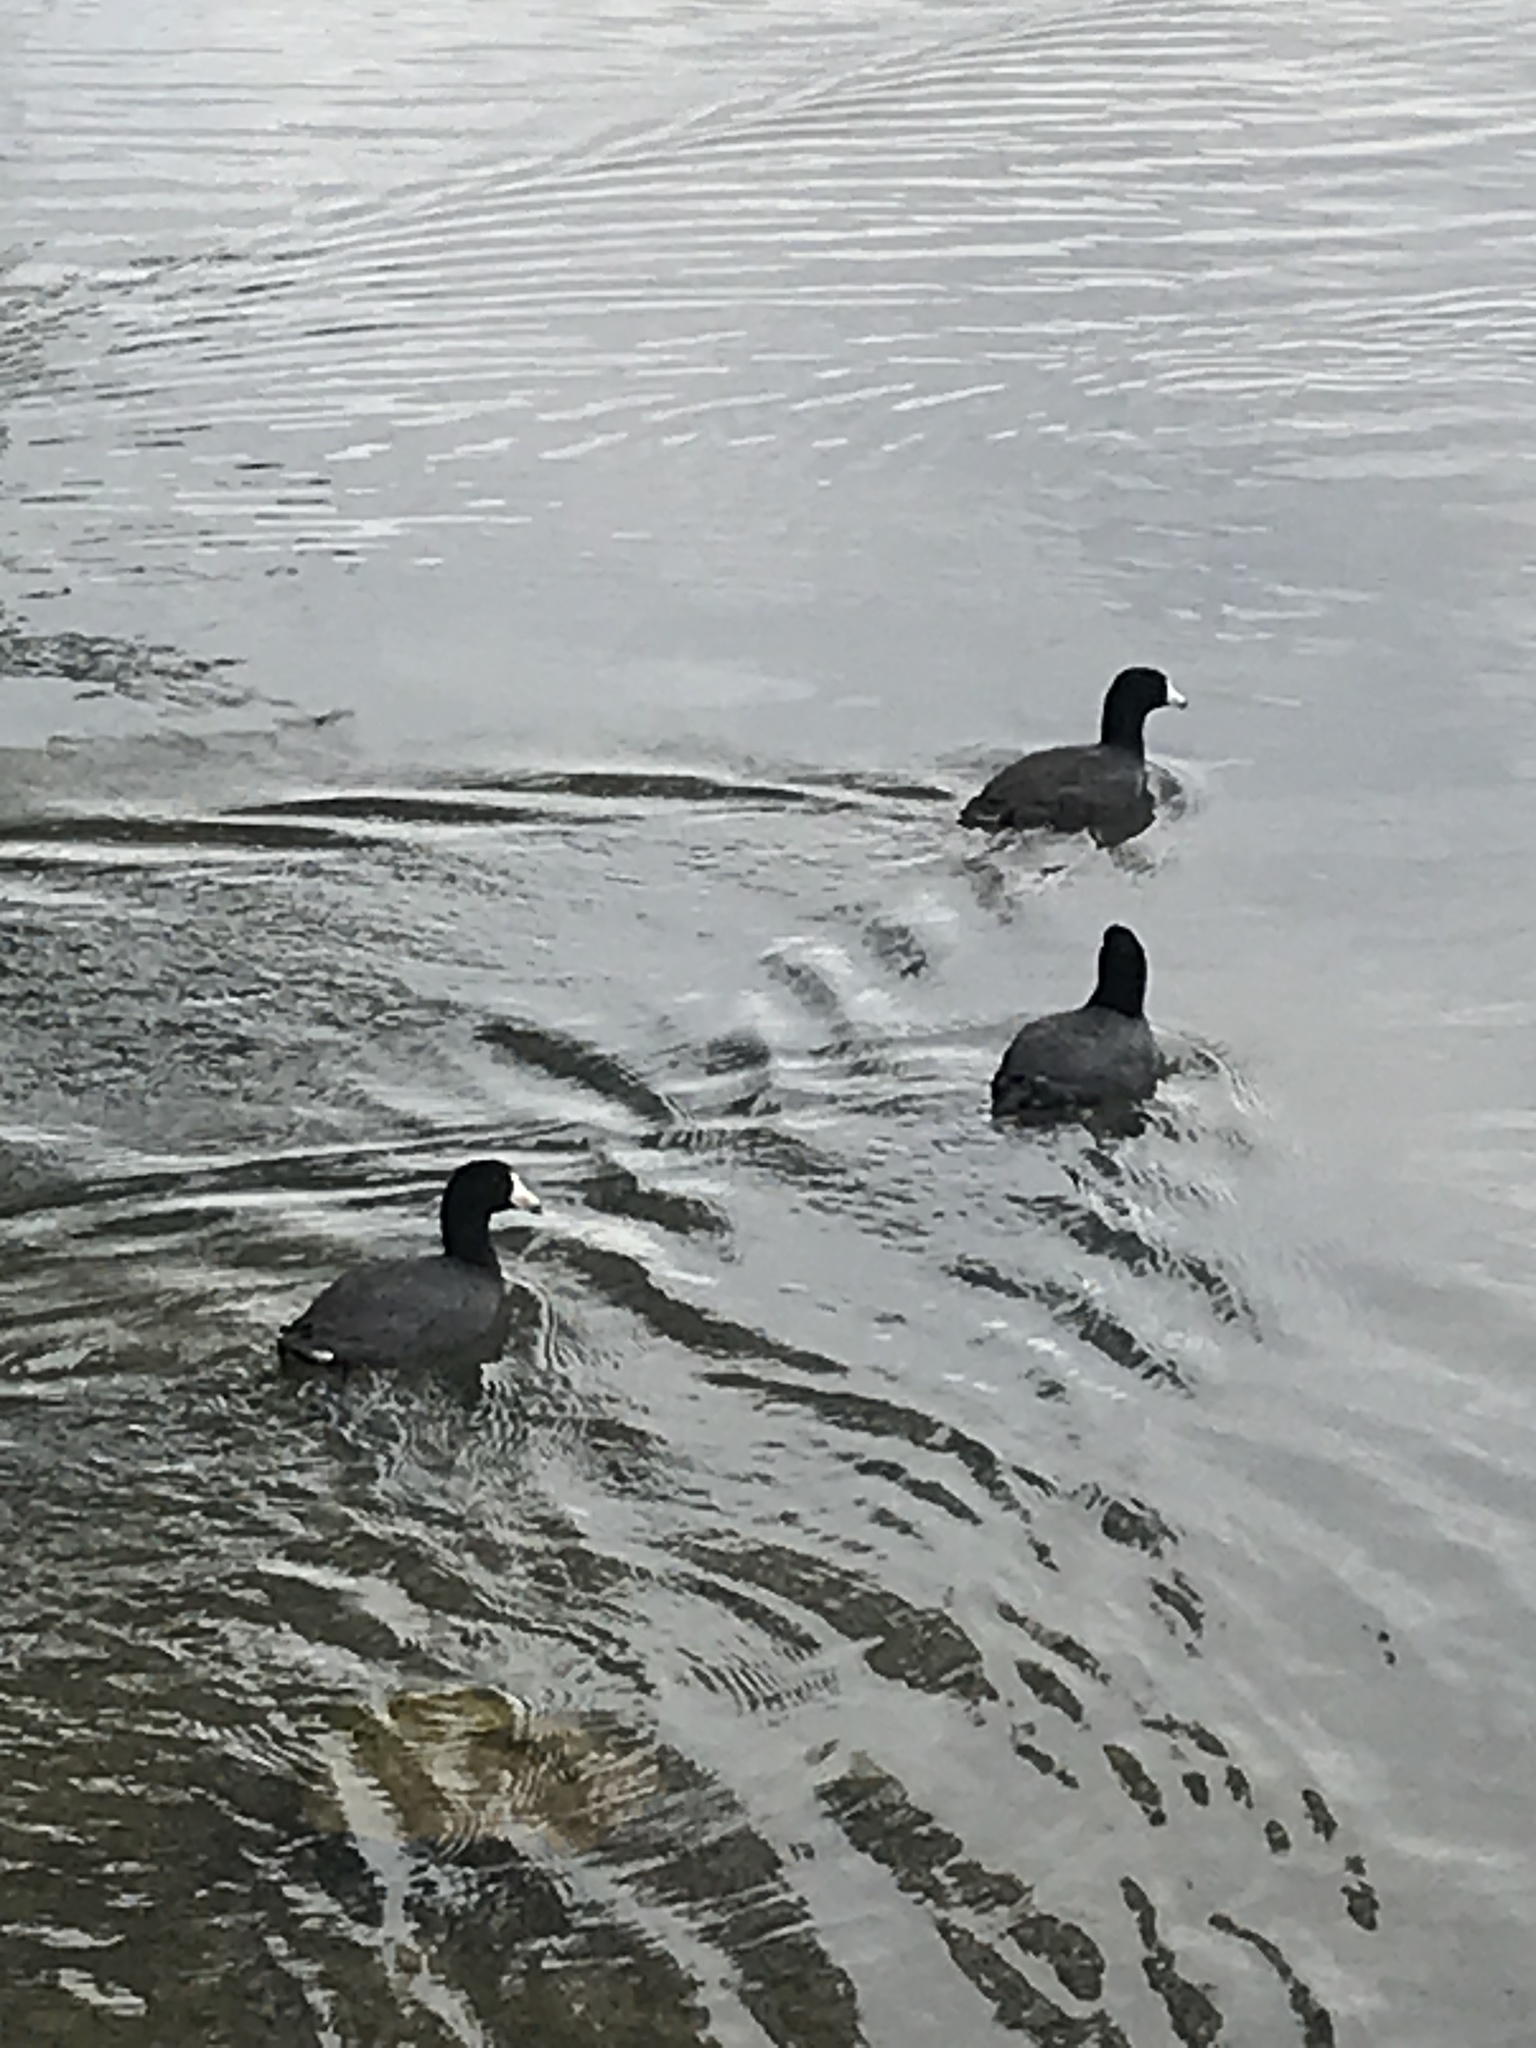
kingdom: Animalia
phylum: Chordata
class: Aves
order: Gruiformes
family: Rallidae
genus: Fulica
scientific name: Fulica americana
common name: American coot
